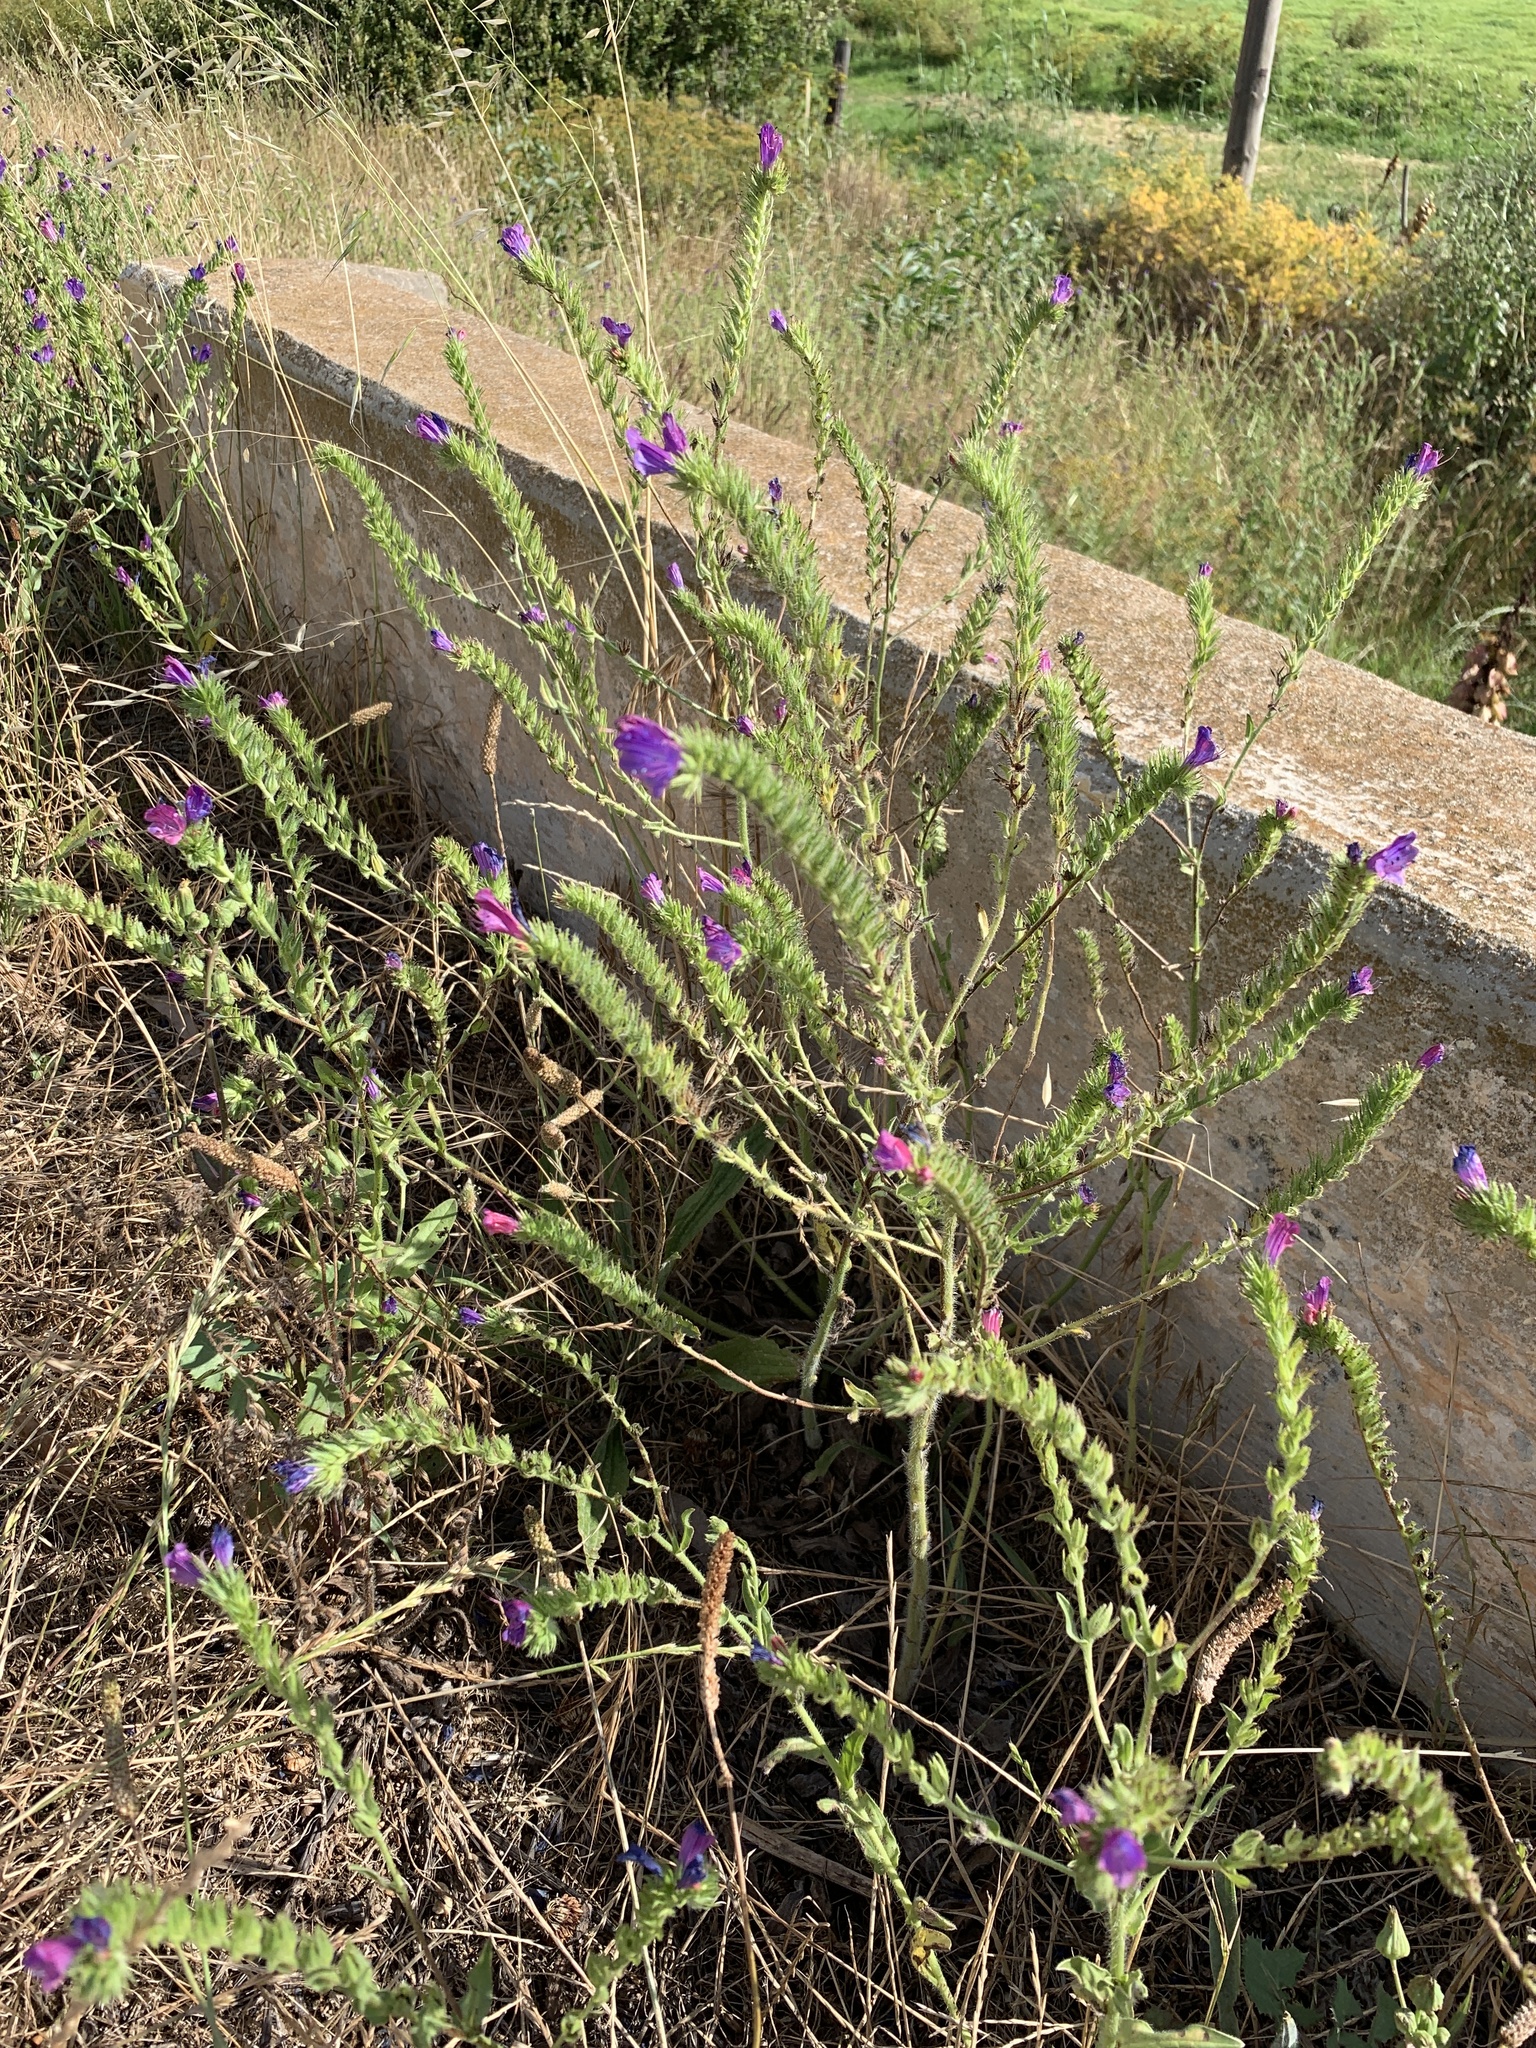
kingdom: Plantae
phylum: Tracheophyta
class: Magnoliopsida
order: Boraginales
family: Boraginaceae
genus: Echium
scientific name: Echium plantagineum
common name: Purple viper's-bugloss
